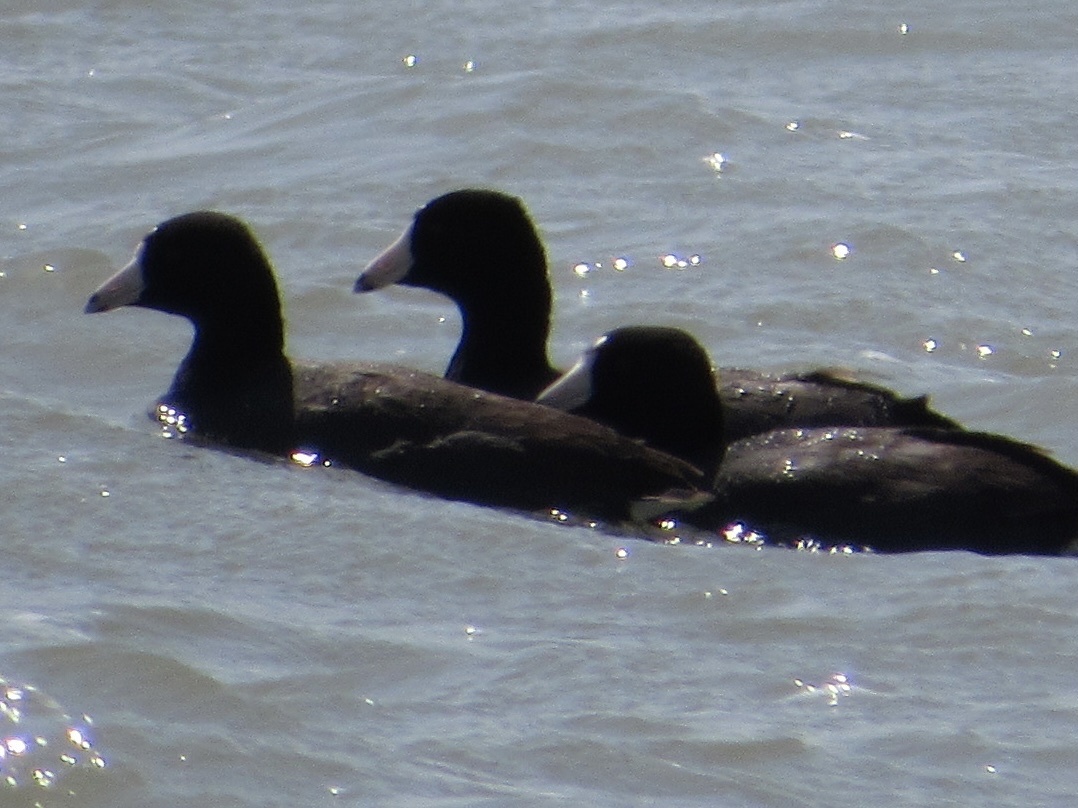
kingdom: Animalia
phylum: Chordata
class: Aves
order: Gruiformes
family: Rallidae
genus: Fulica
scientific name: Fulica americana
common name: American coot
